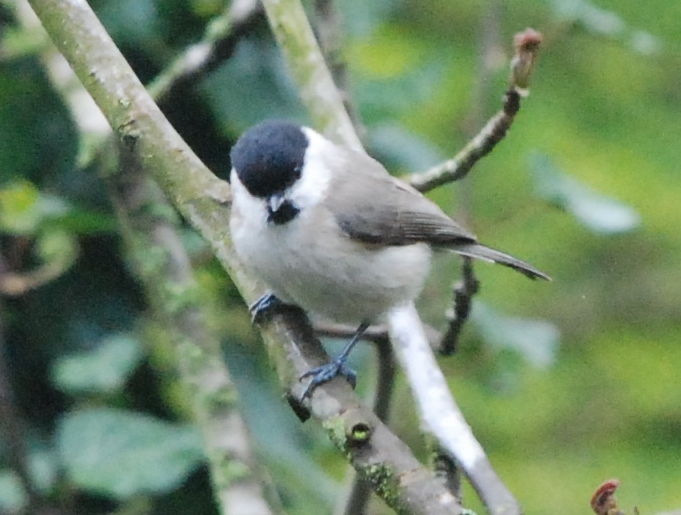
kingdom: Animalia
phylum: Chordata
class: Aves
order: Passeriformes
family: Paridae
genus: Poecile
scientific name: Poecile palustris
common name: Marsh tit
